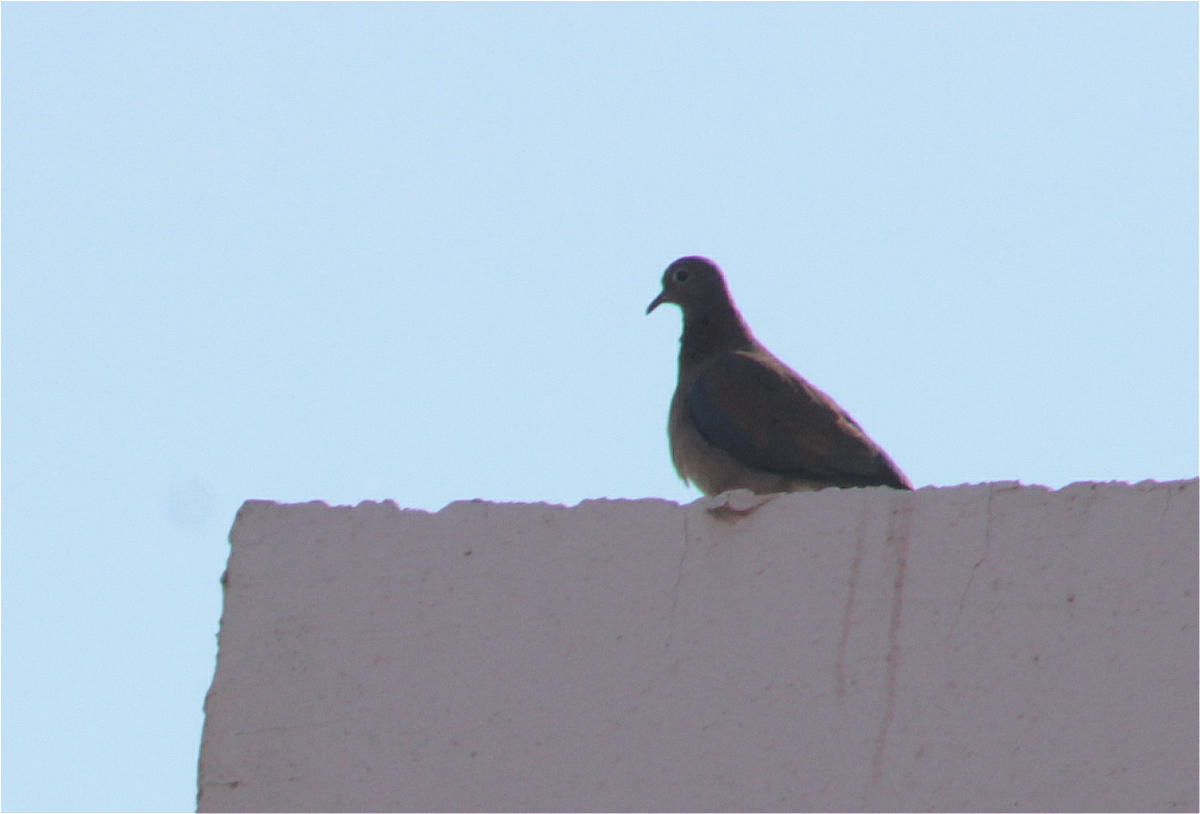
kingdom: Animalia
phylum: Chordata
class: Aves
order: Columbiformes
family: Columbidae
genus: Spilopelia
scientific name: Spilopelia senegalensis
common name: Laughing dove
